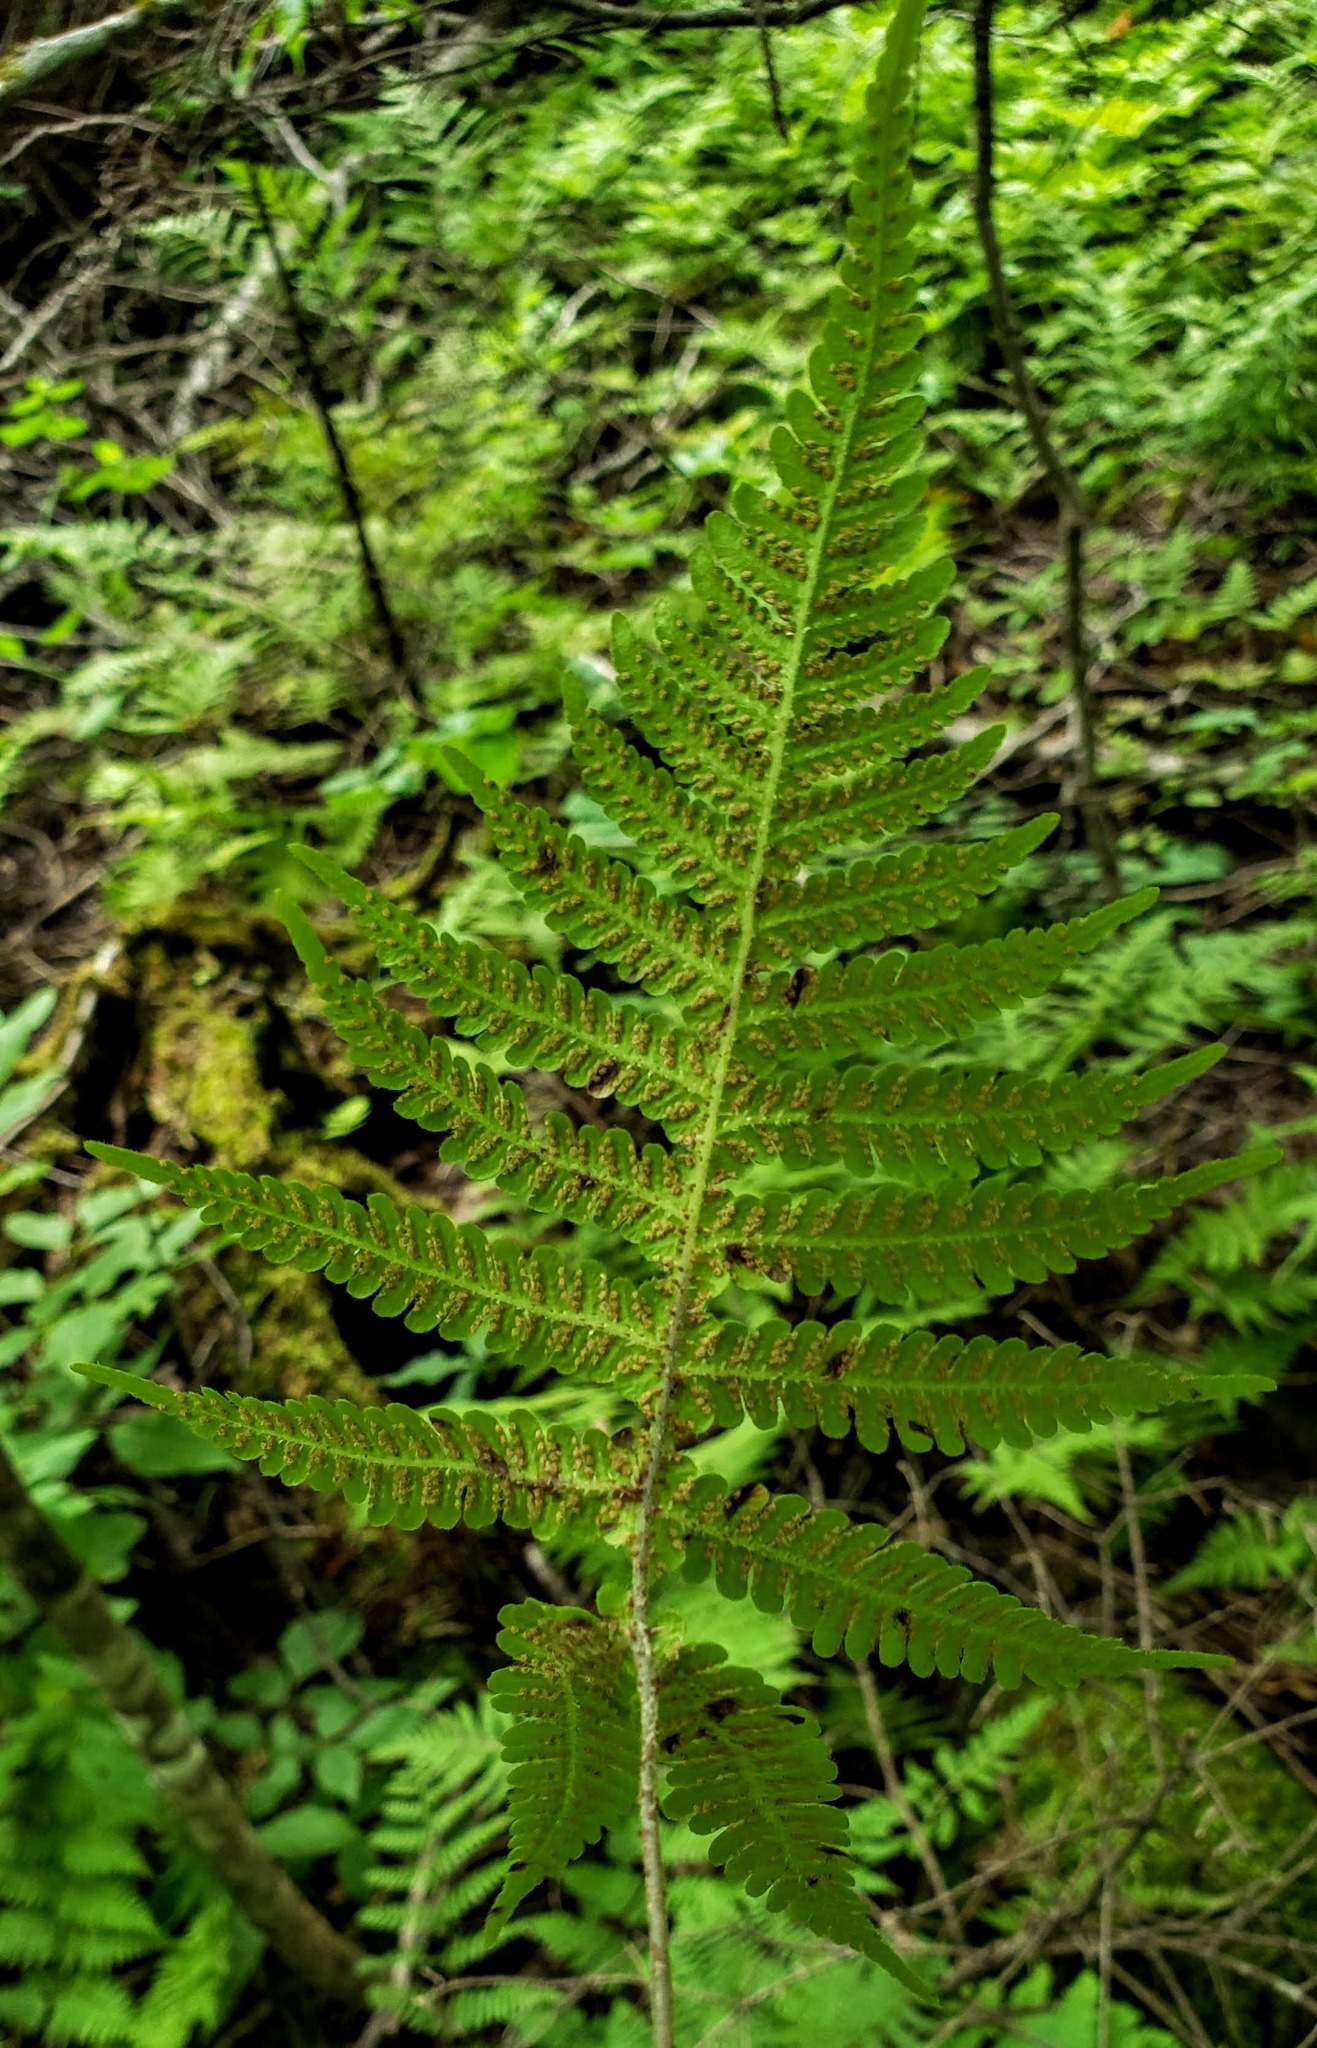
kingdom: Plantae
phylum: Tracheophyta
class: Polypodiopsida
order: Polypodiales
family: Thelypteridaceae
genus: Phegopteris
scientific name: Phegopteris connectilis
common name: Beech fern
